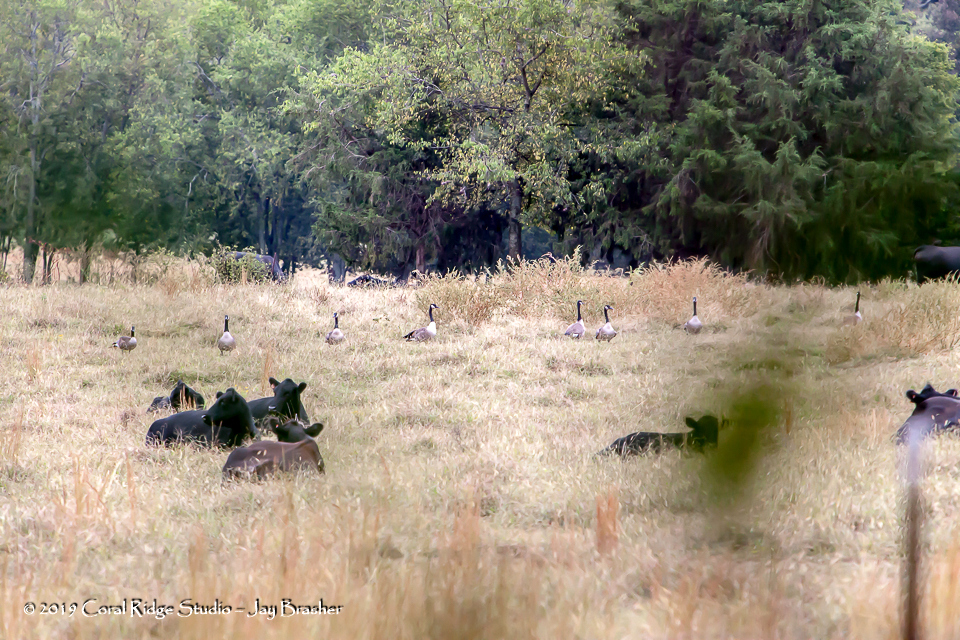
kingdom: Animalia
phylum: Chordata
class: Aves
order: Anseriformes
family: Anatidae
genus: Branta
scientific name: Branta canadensis
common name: Canada goose
